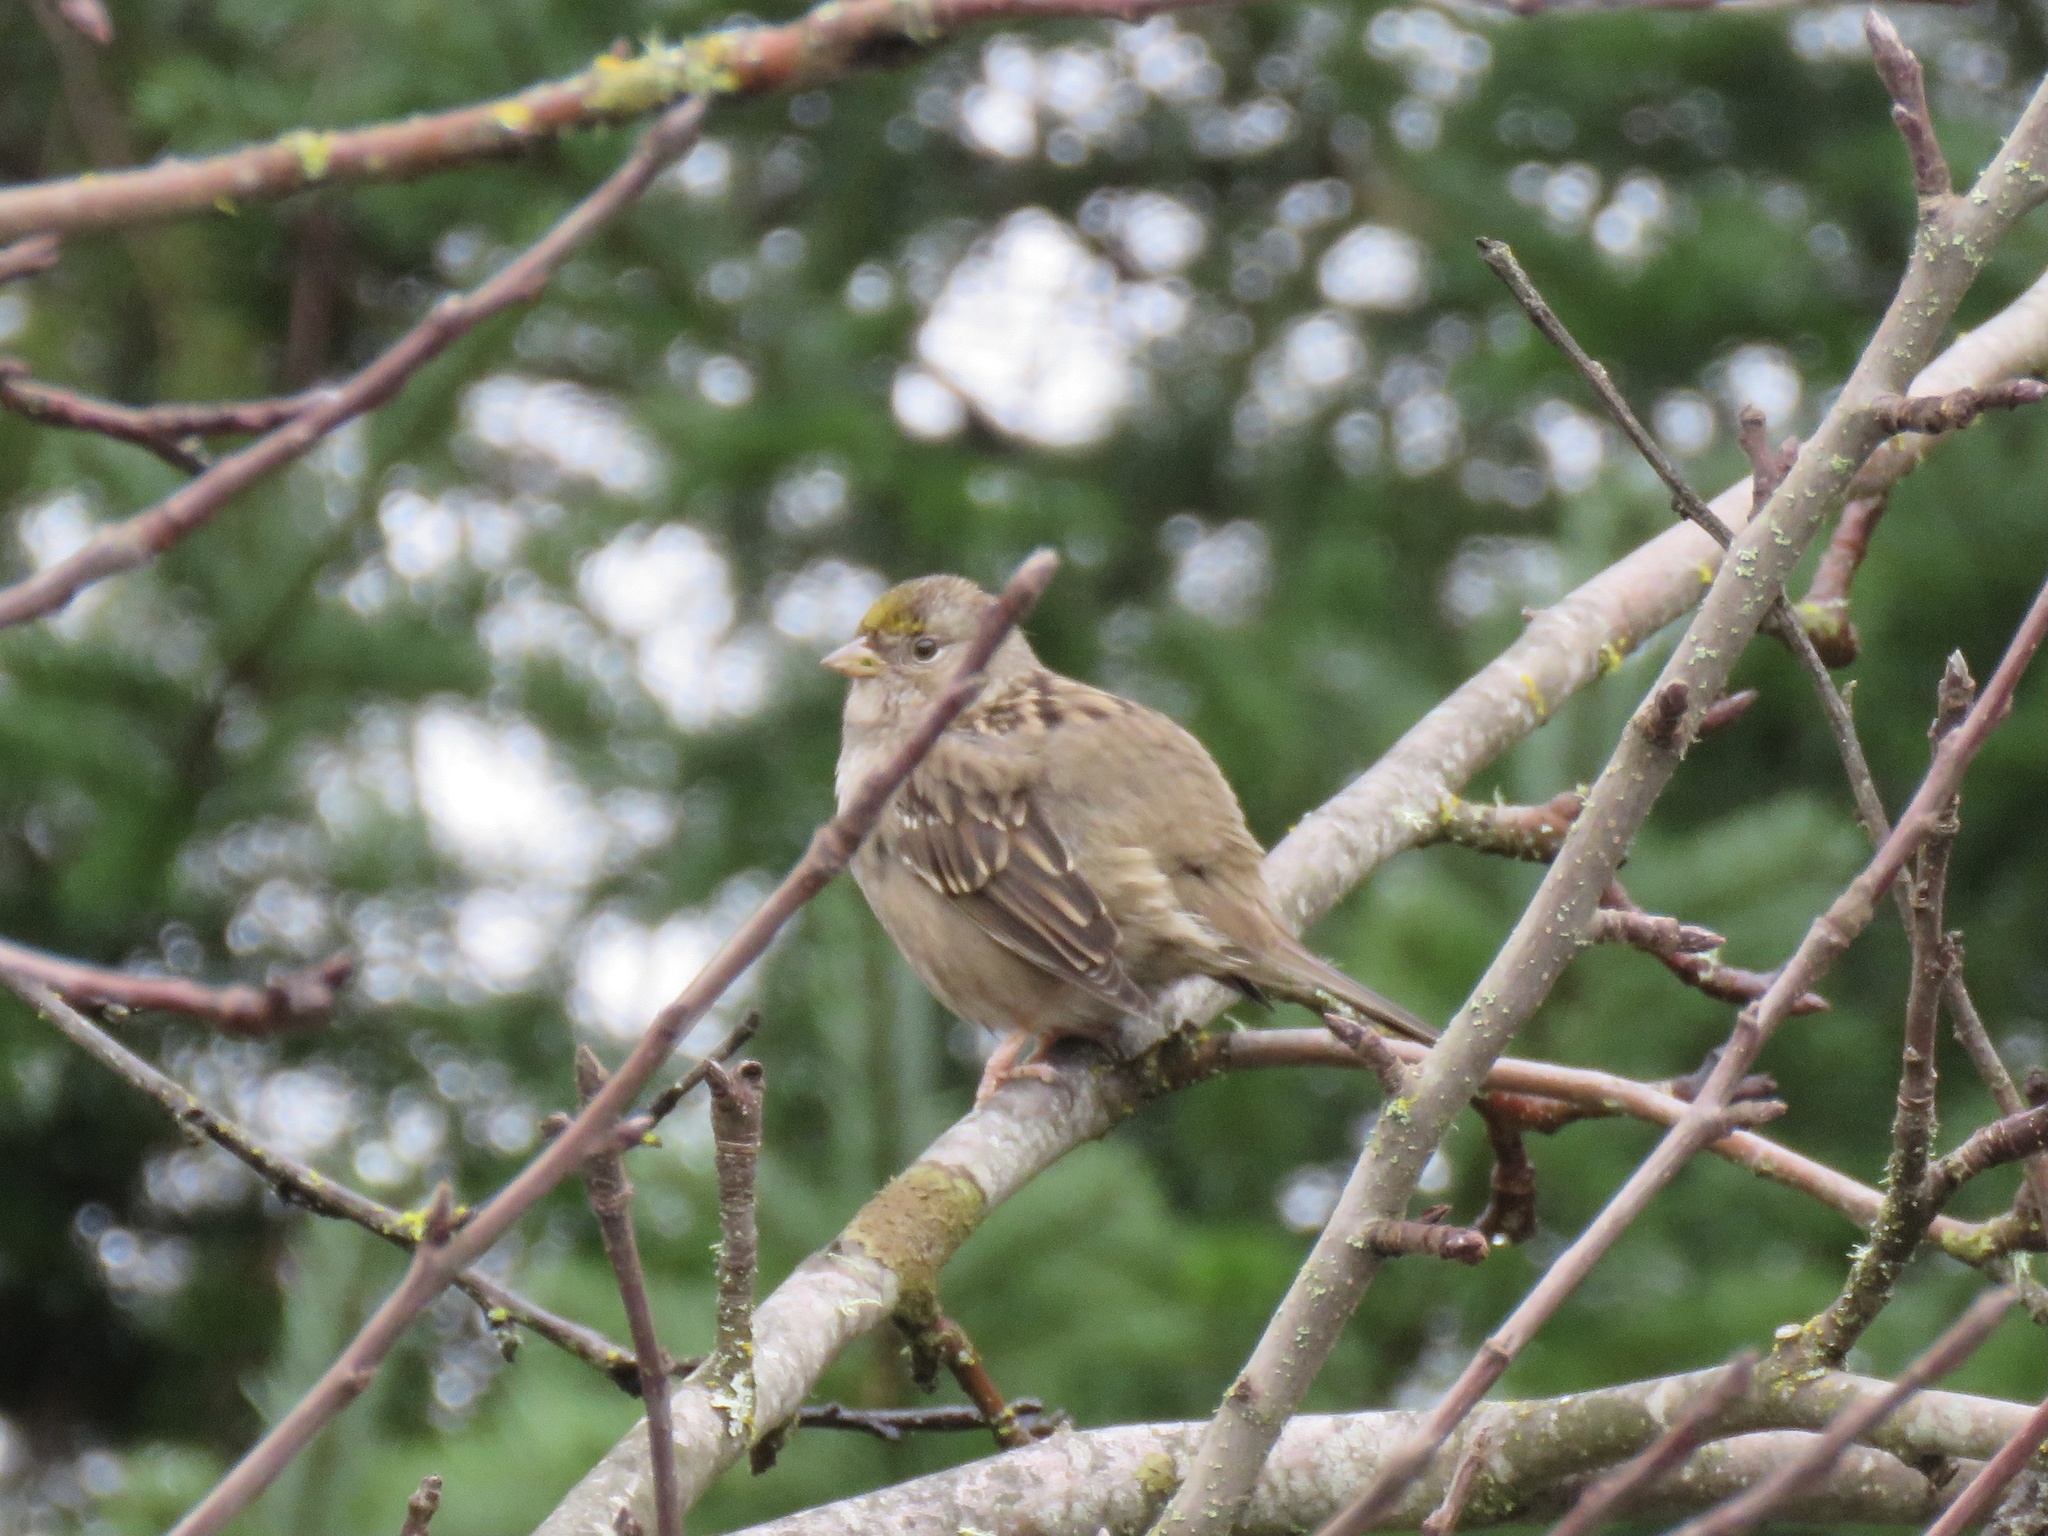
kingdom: Animalia
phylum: Chordata
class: Aves
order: Passeriformes
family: Passerellidae
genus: Zonotrichia
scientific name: Zonotrichia atricapilla
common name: Golden-crowned sparrow
